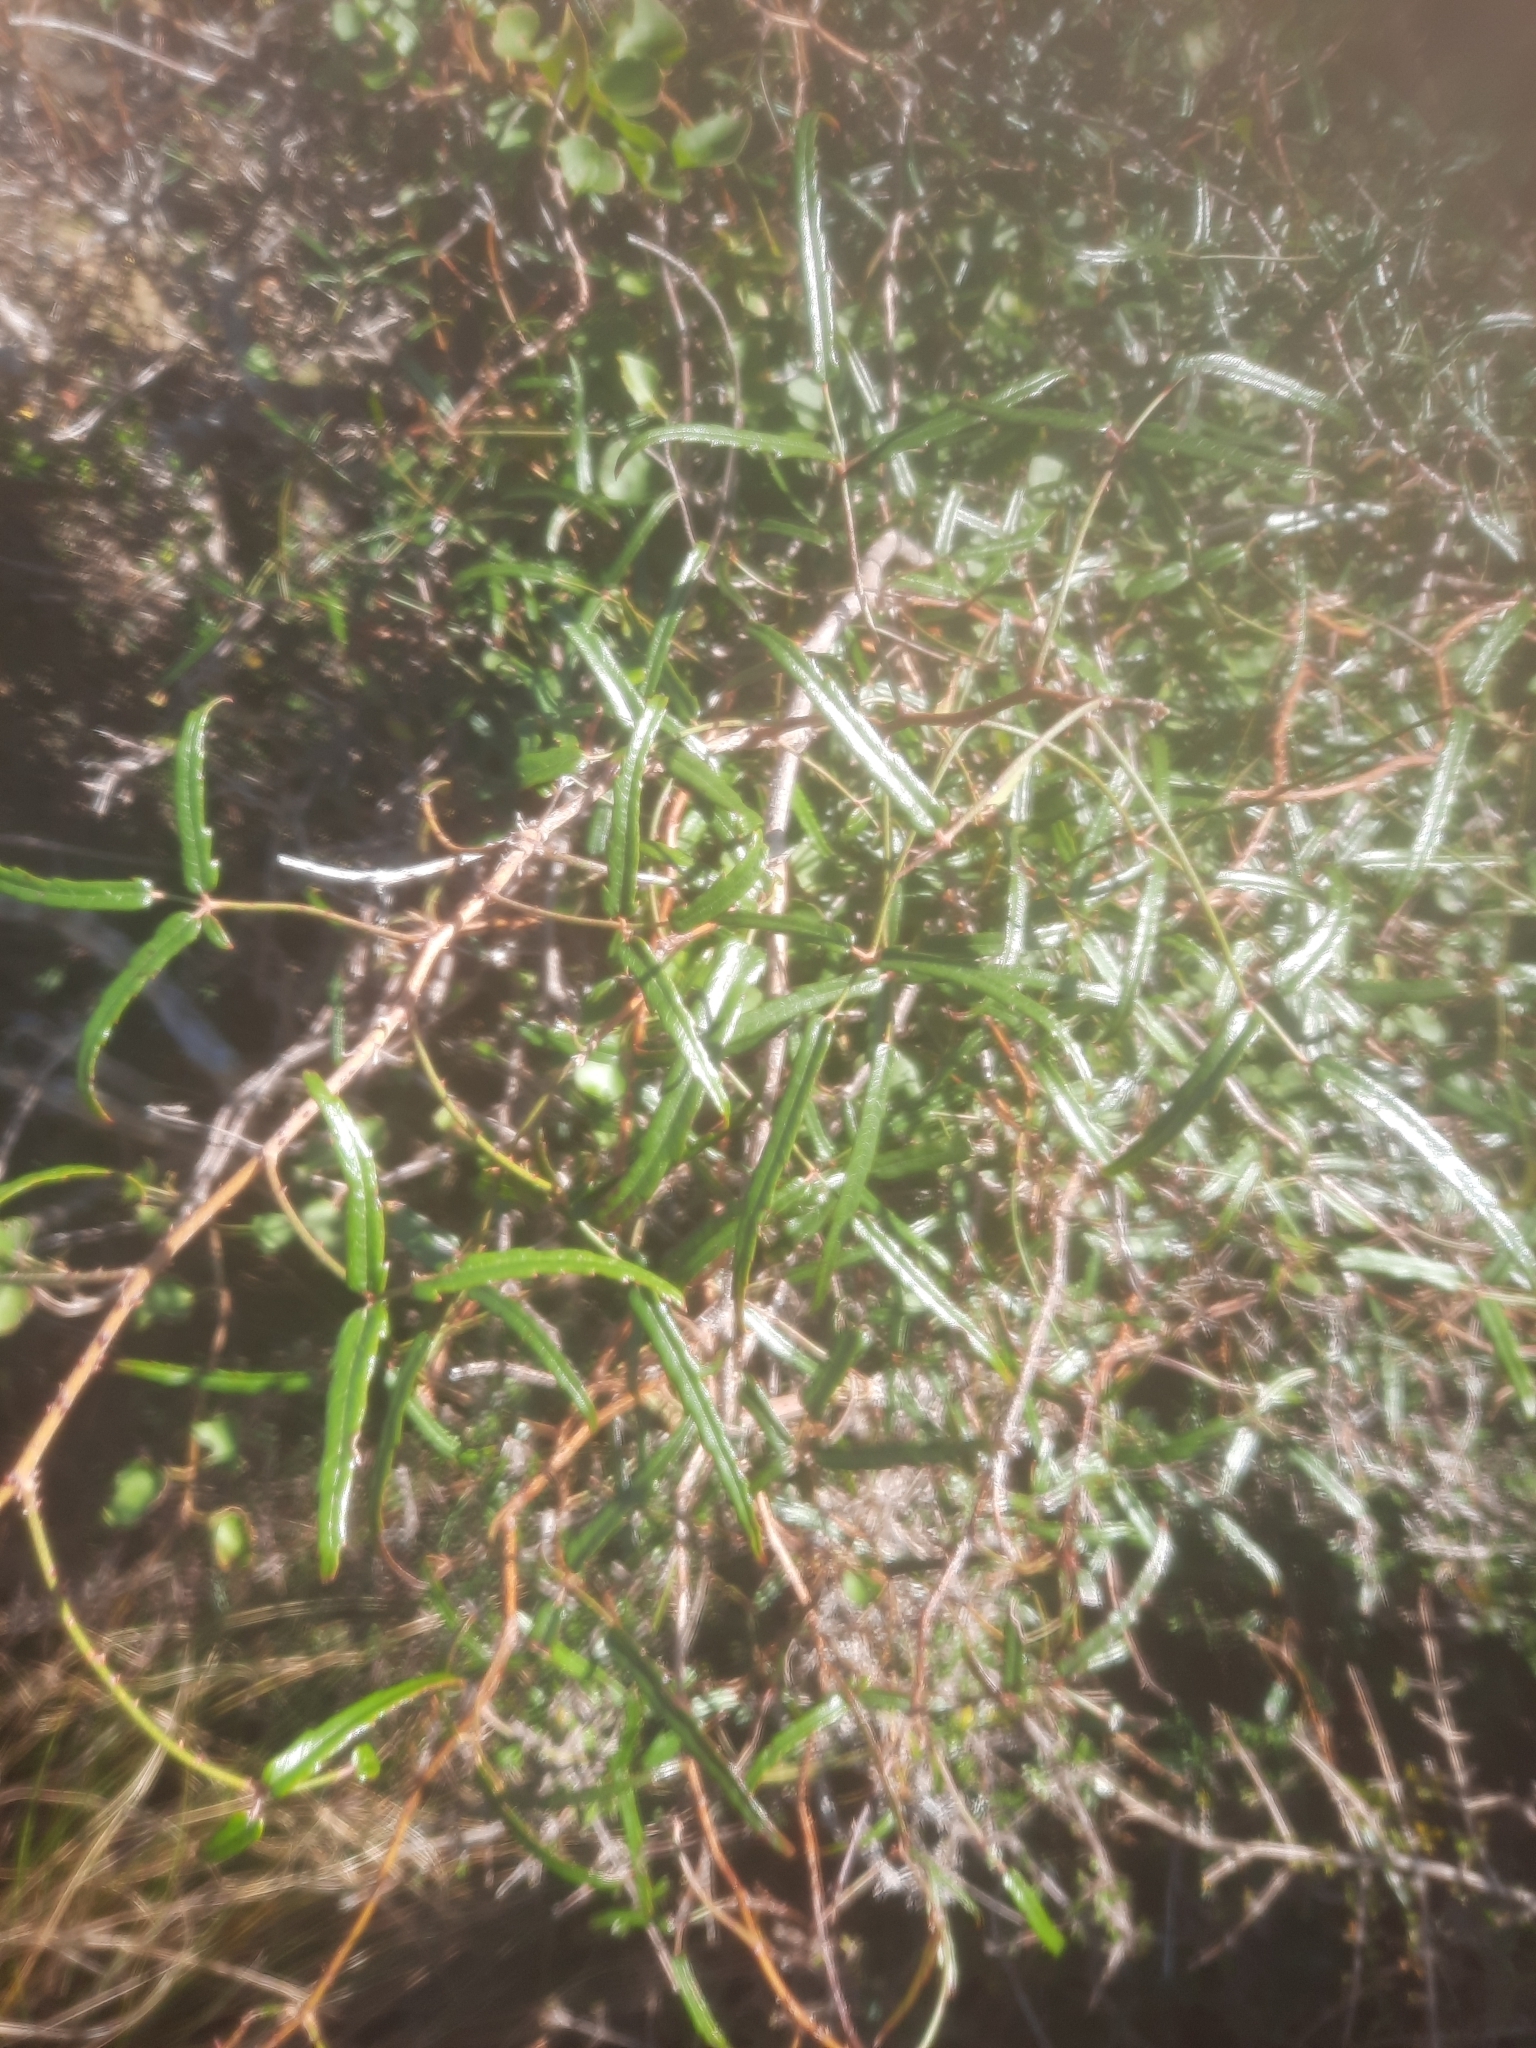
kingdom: Plantae
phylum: Tracheophyta
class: Magnoliopsida
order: Rosales
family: Rosaceae
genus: Rubus
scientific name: Rubus schmidelioides
